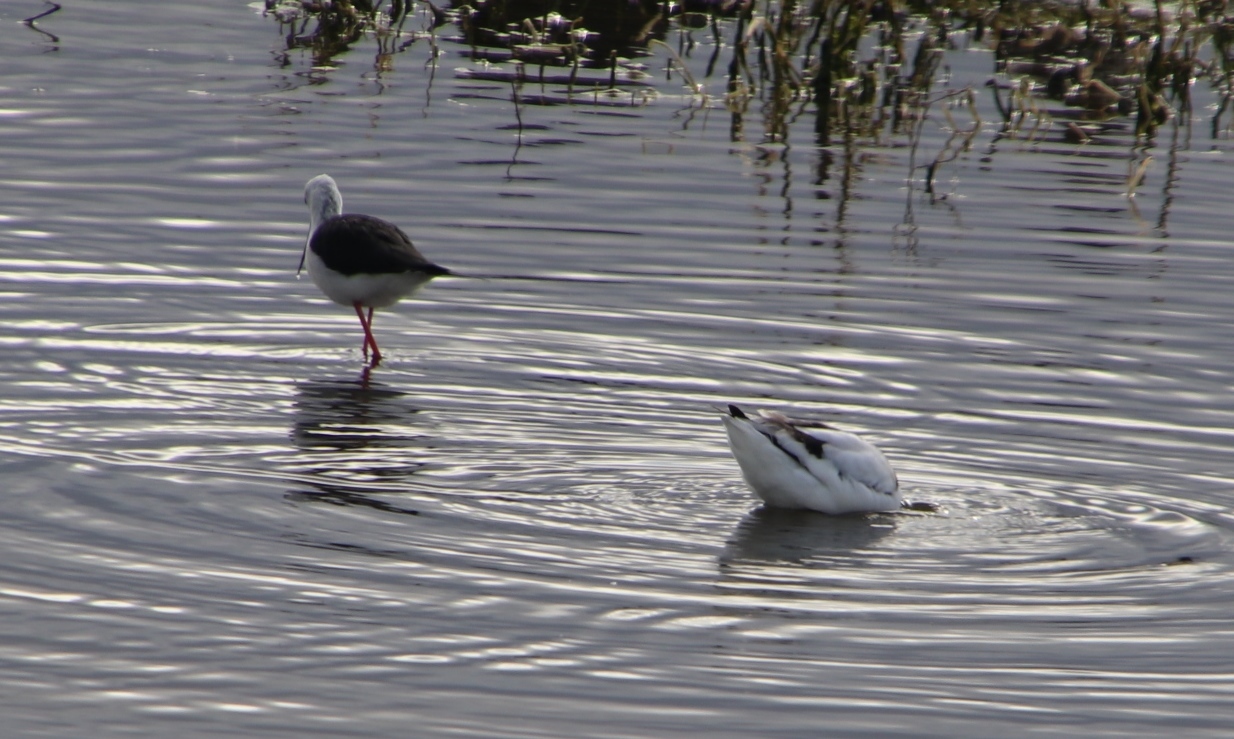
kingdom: Animalia
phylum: Chordata
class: Aves
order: Charadriiformes
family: Recurvirostridae
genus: Recurvirostra
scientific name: Recurvirostra avosetta
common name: Pied avocet
